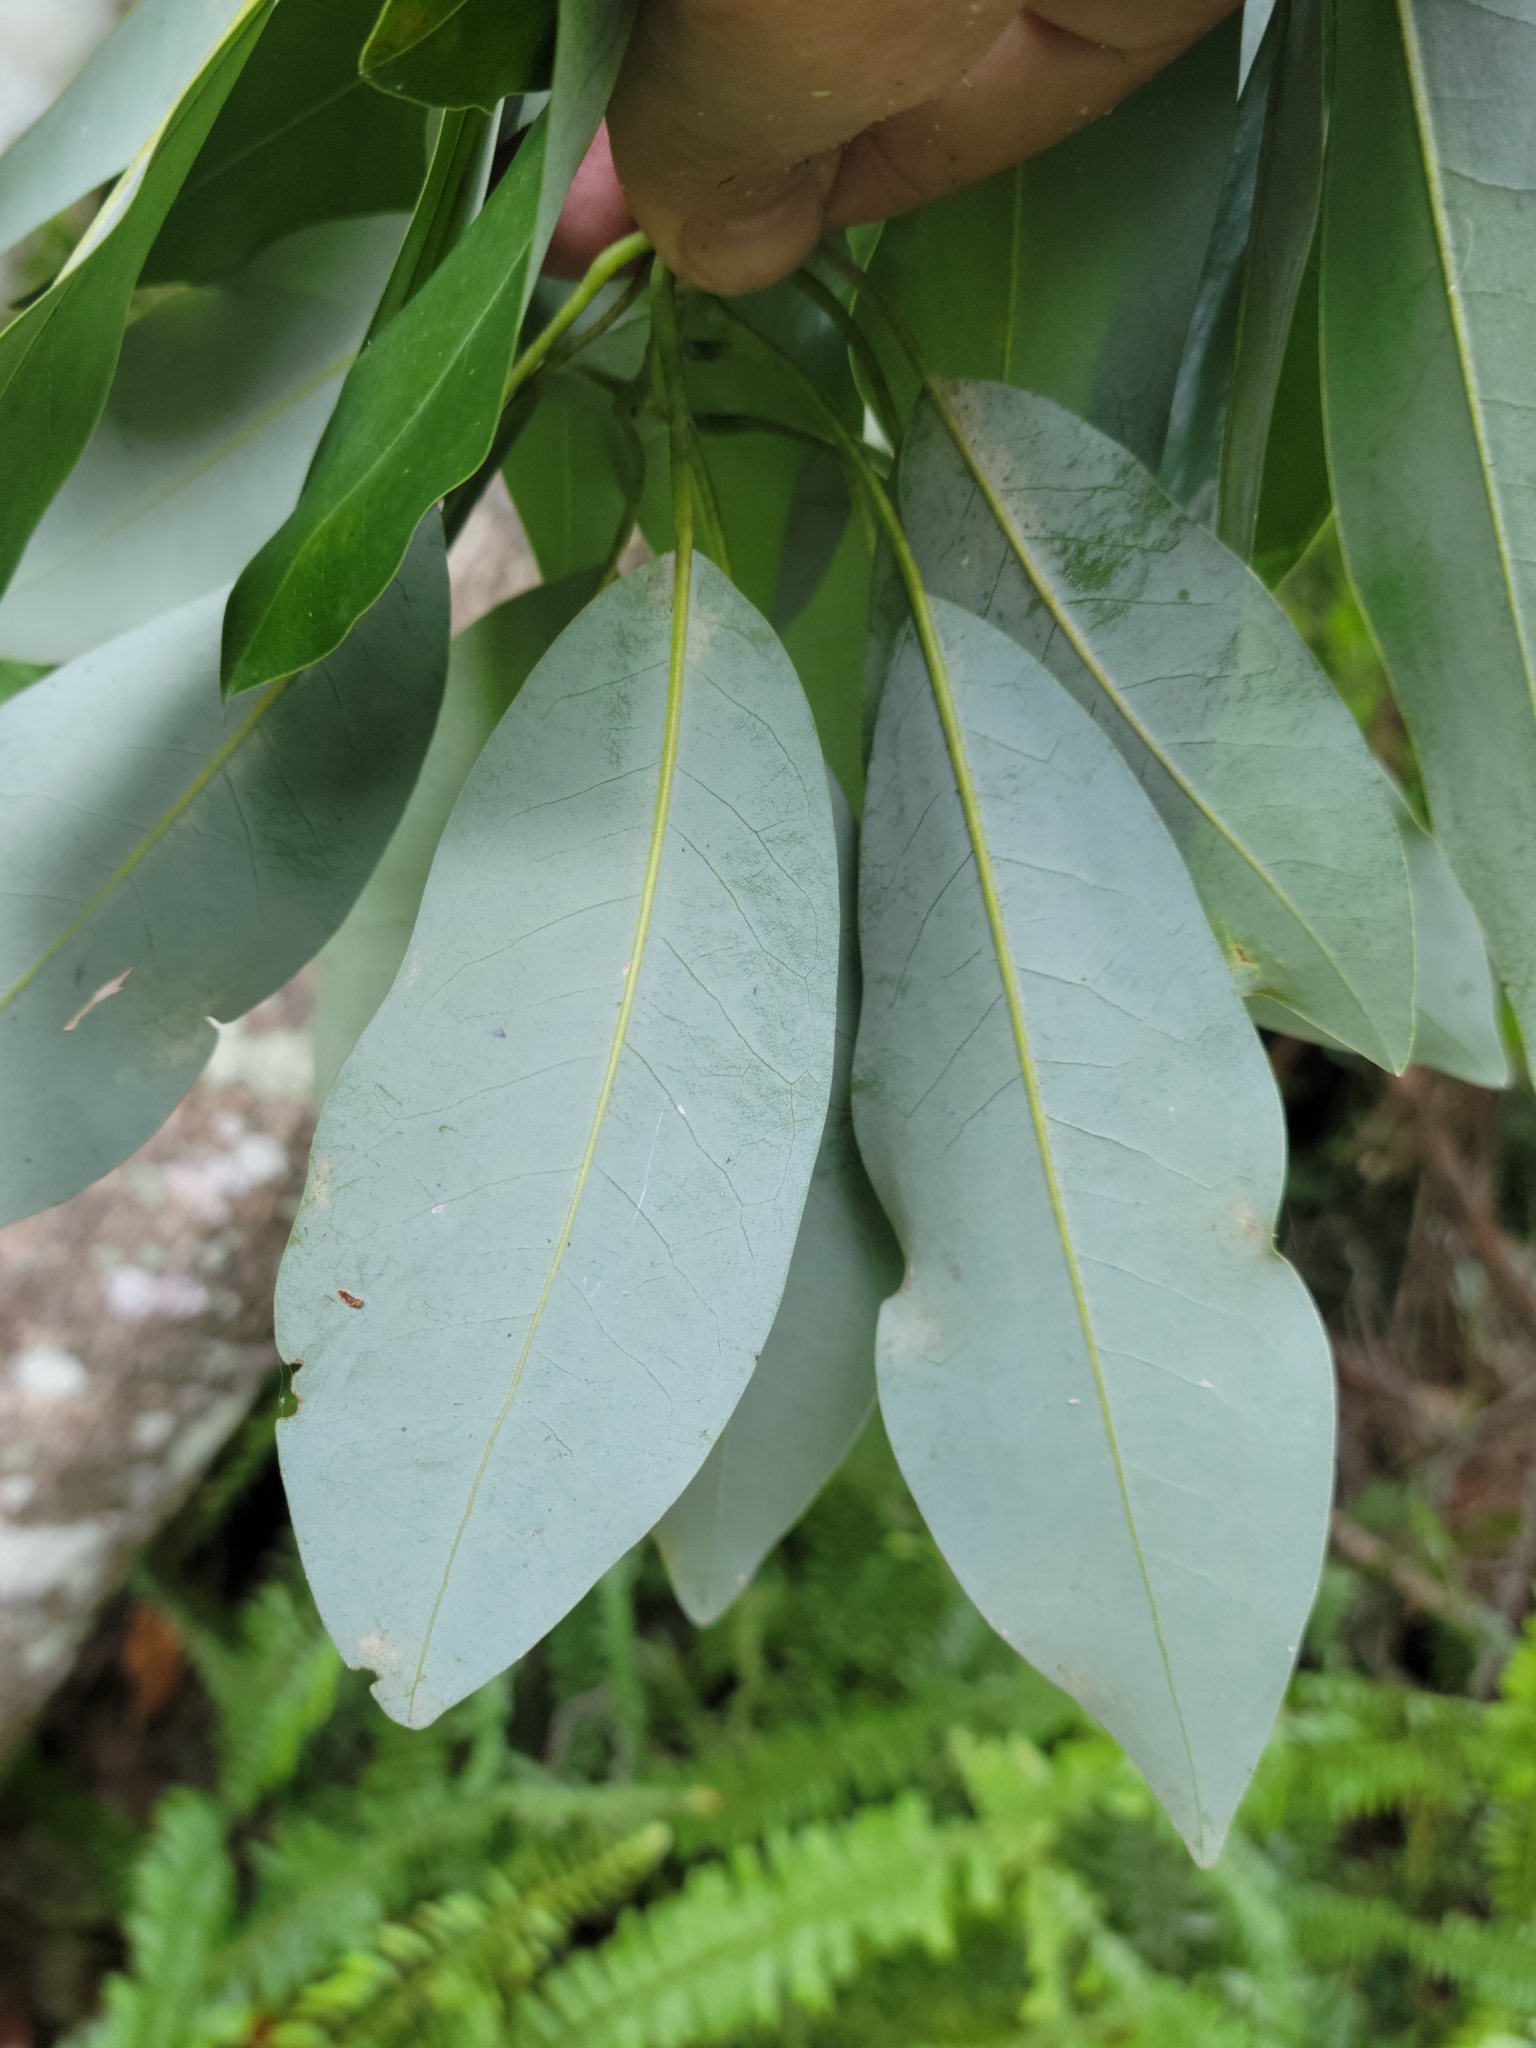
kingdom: Plantae
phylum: Tracheophyta
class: Magnoliopsida
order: Magnoliales
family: Magnoliaceae
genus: Magnolia
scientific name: Magnolia virginiana
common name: Swamp bay
